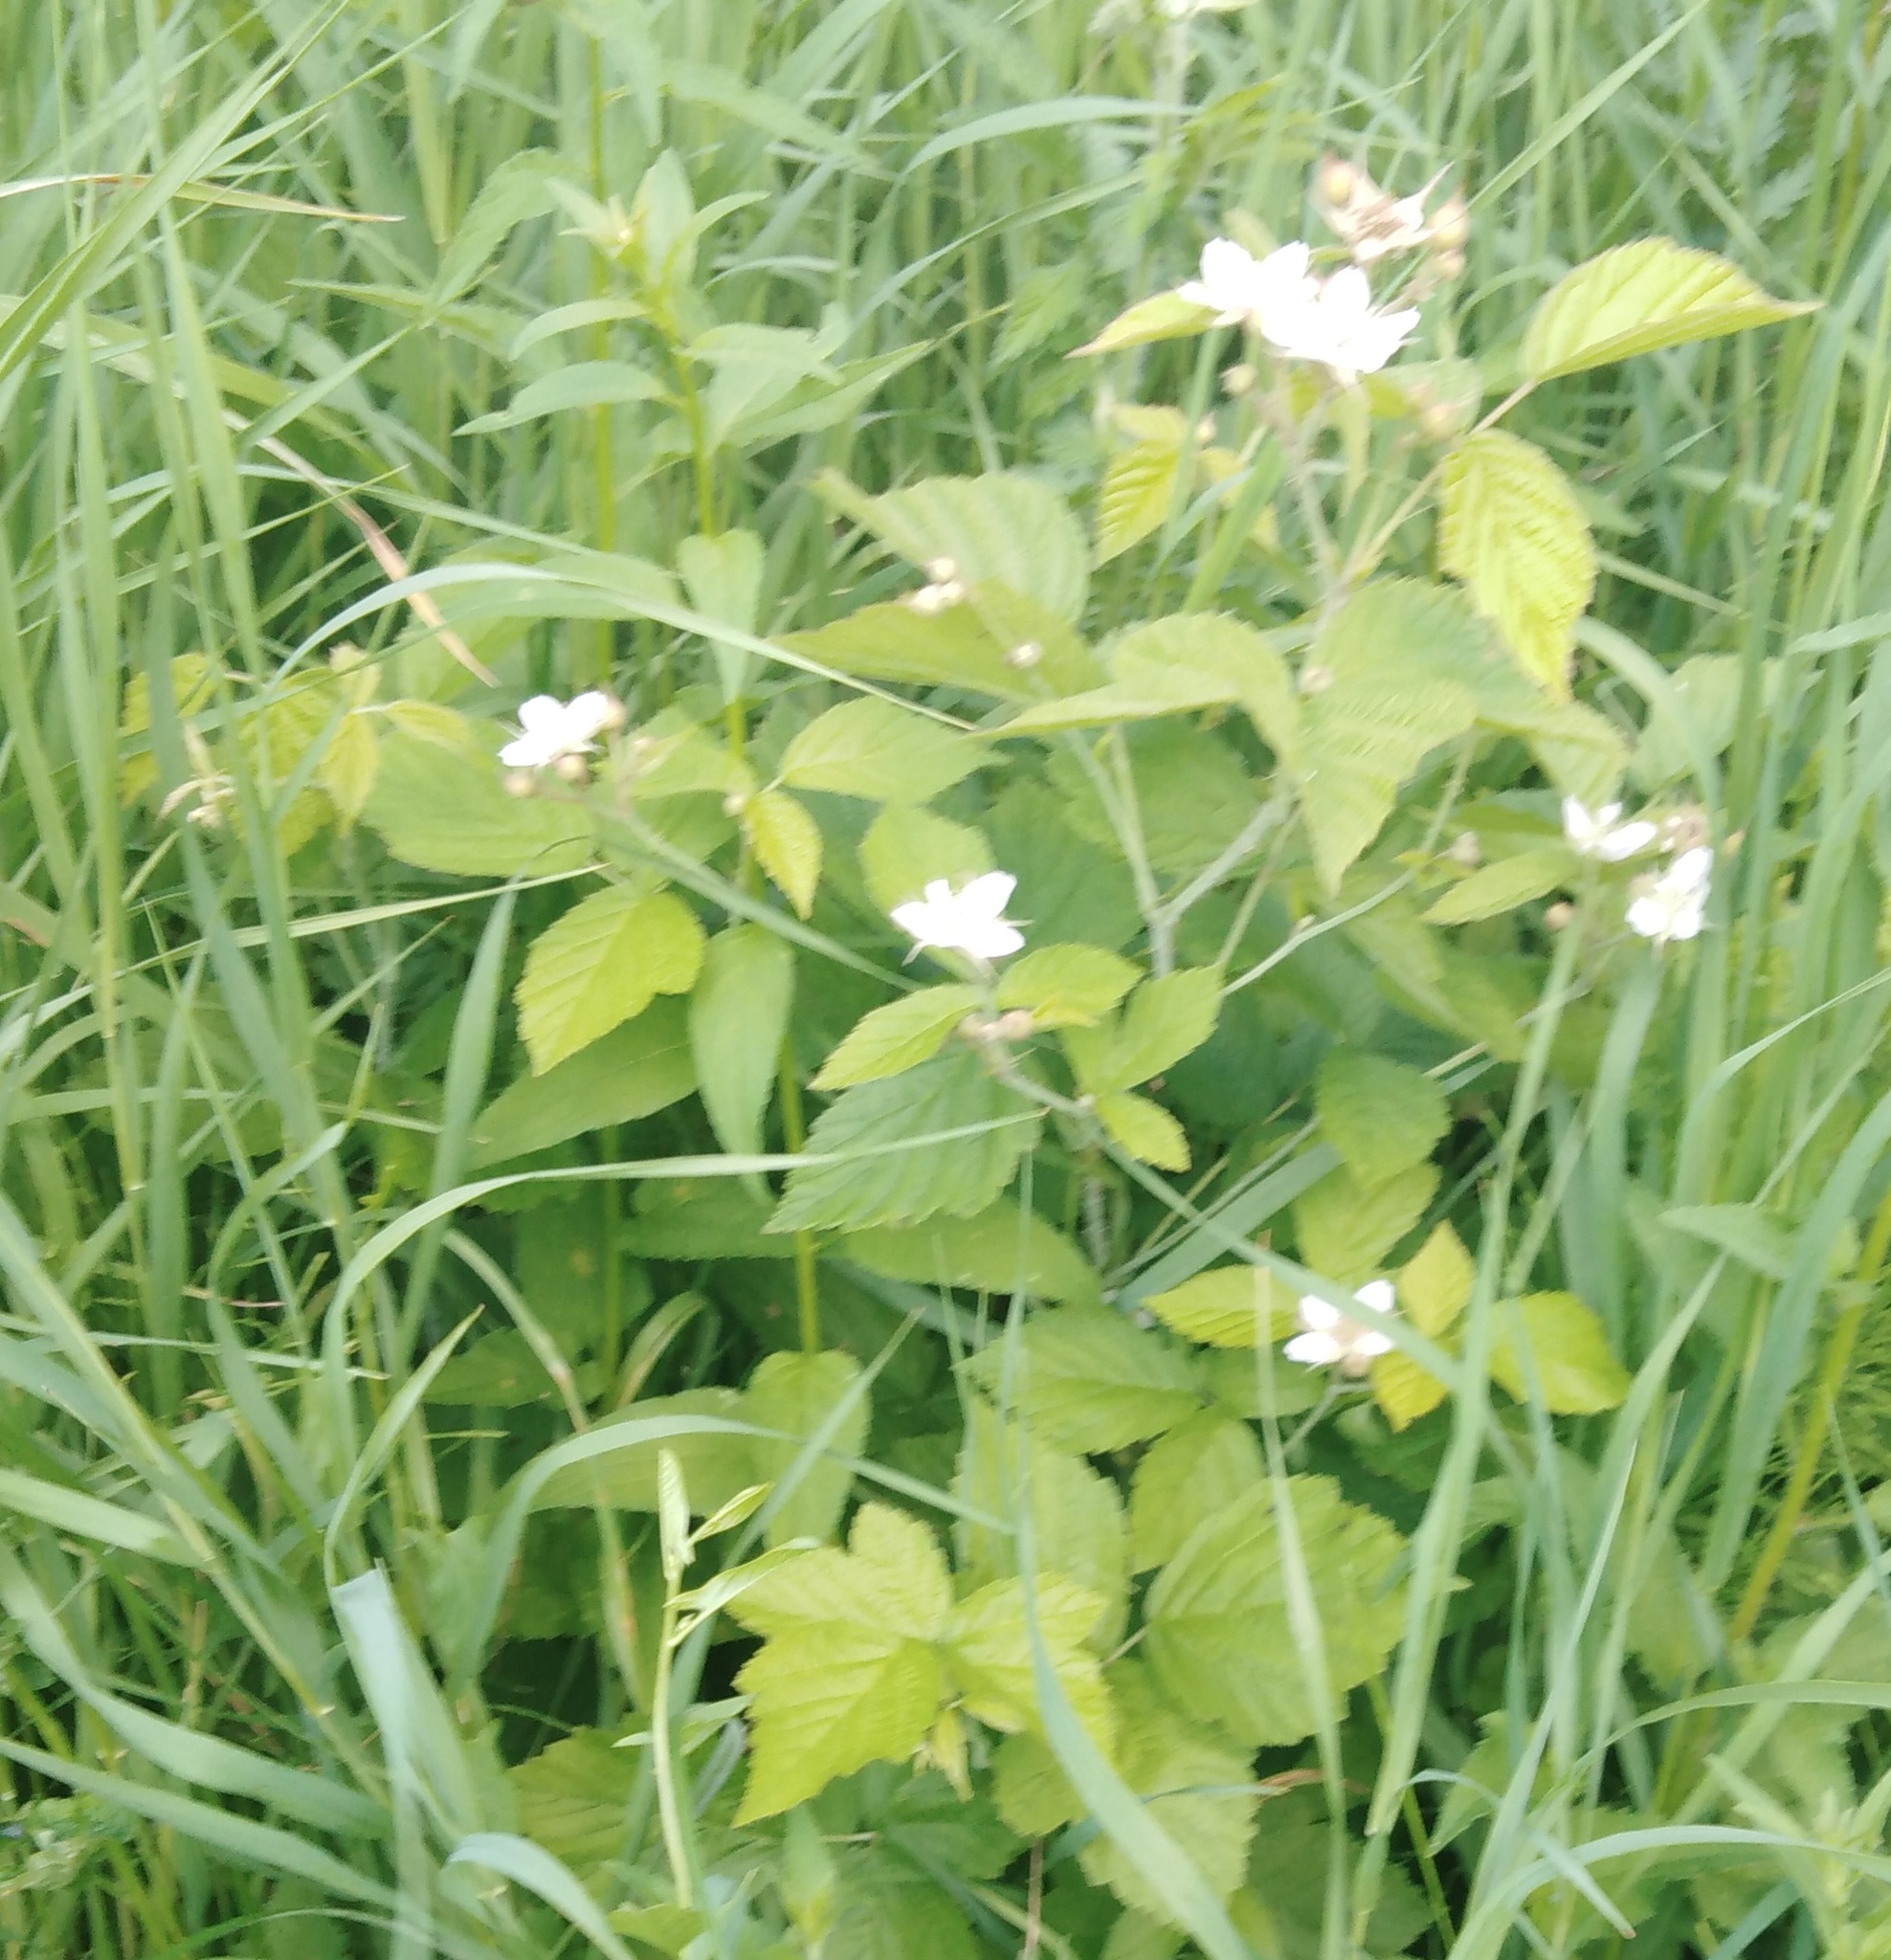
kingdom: Plantae
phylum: Tracheophyta
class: Magnoliopsida
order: Rosales
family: Rosaceae
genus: Rubus
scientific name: Rubus caesius
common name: Dewberry
